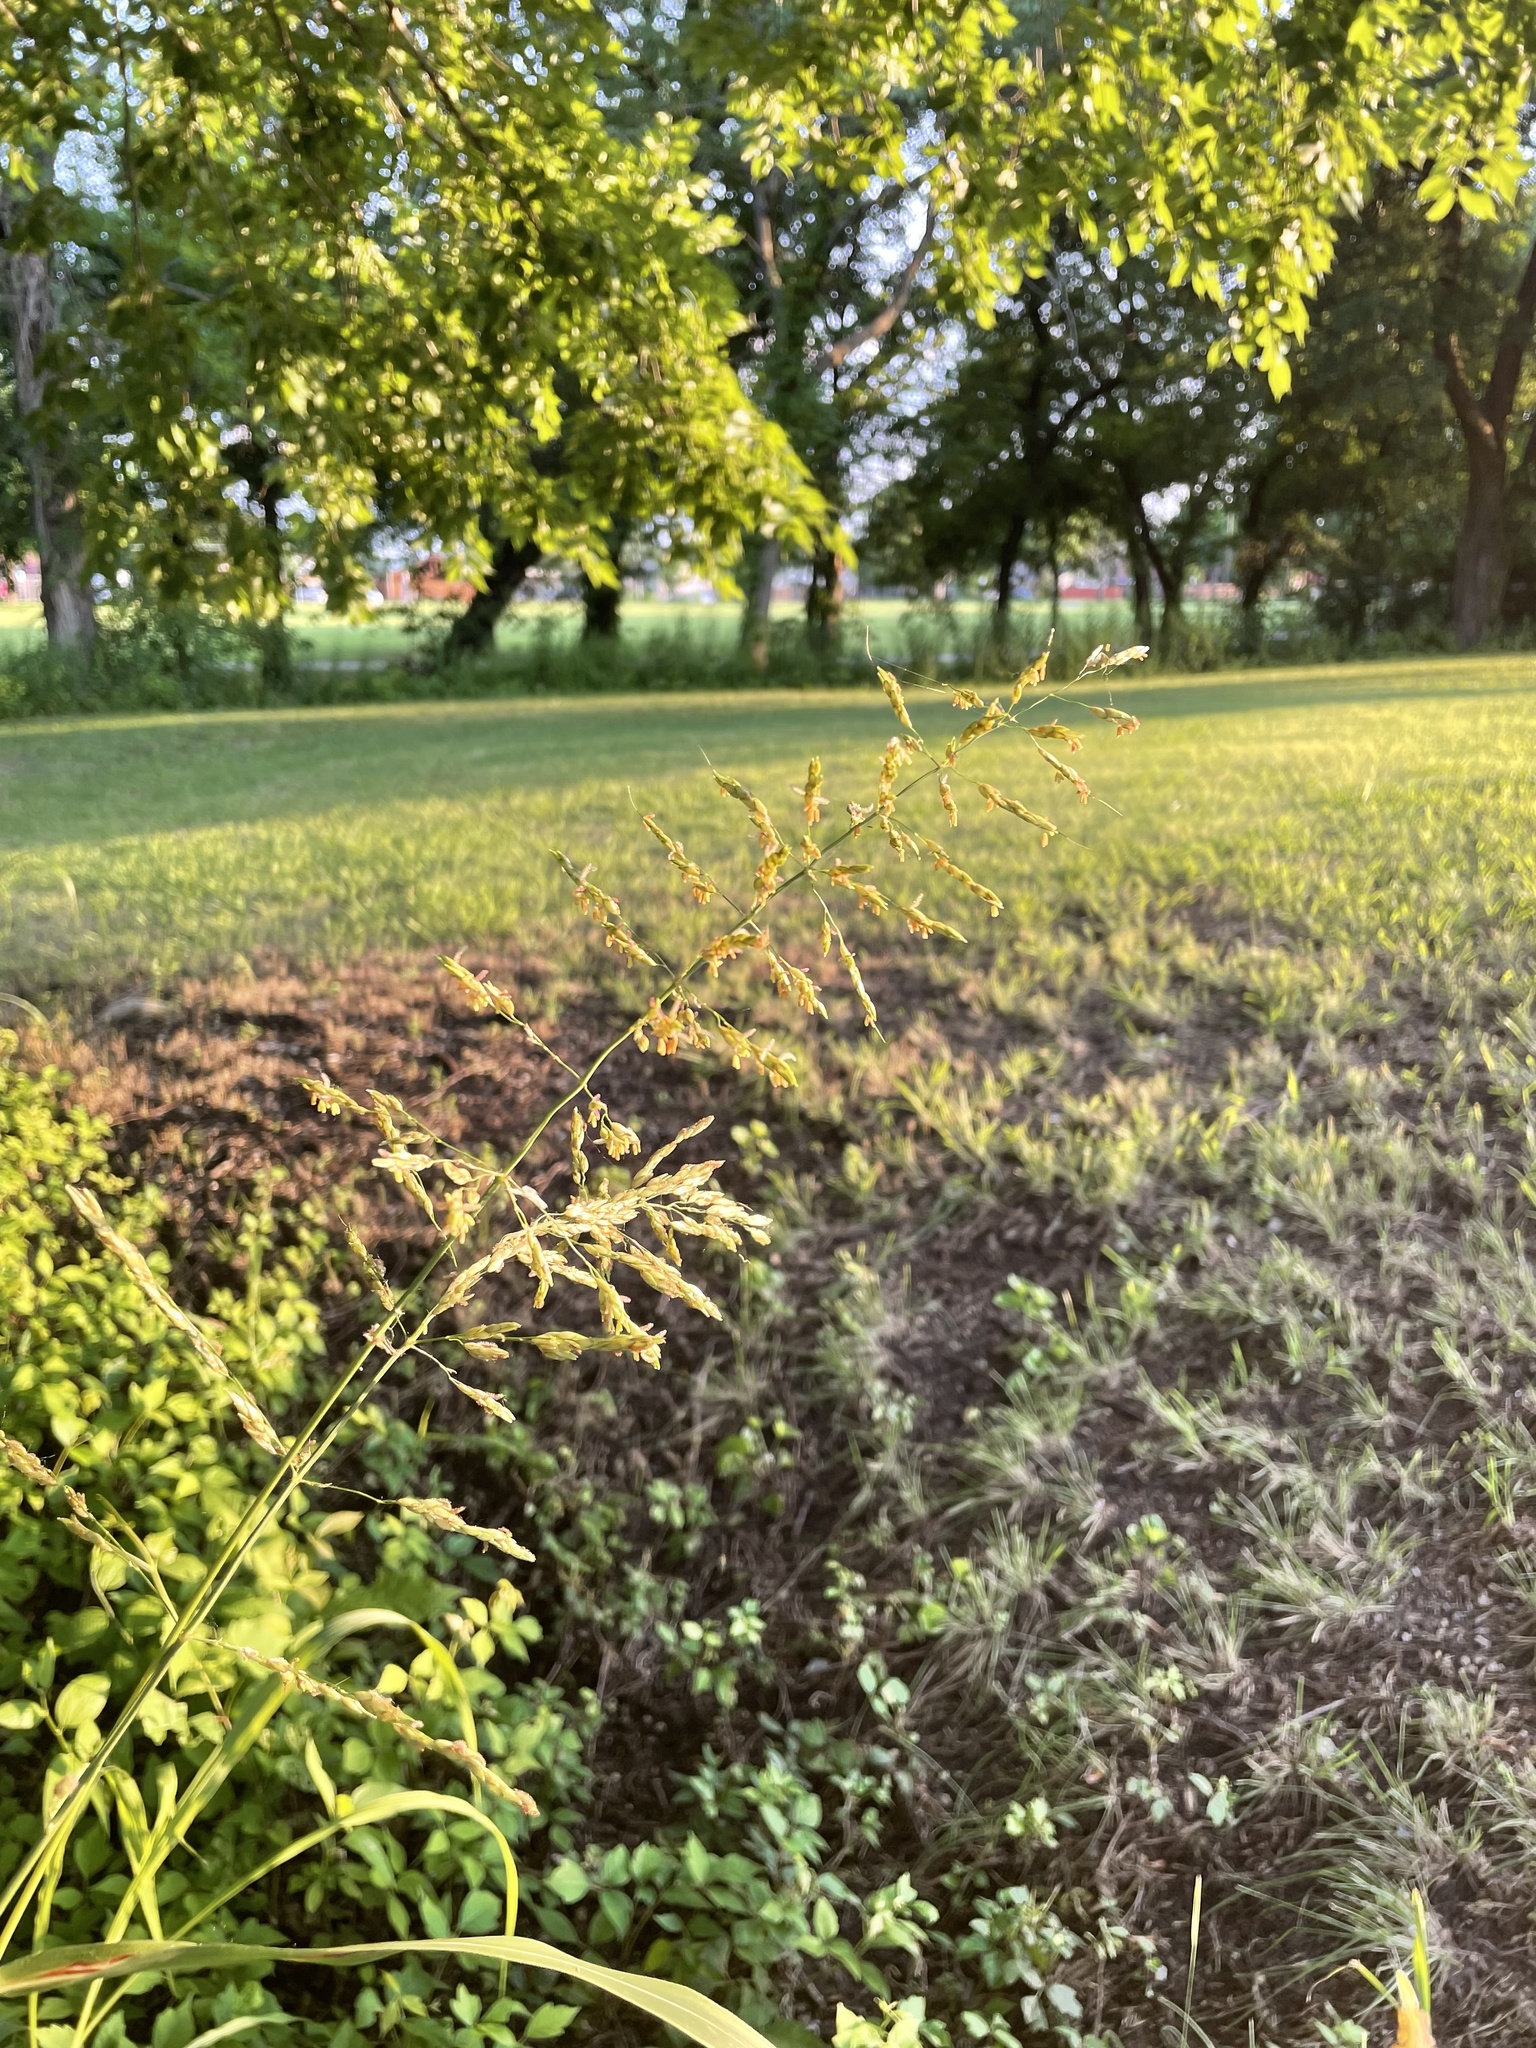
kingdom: Plantae
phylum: Tracheophyta
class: Liliopsida
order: Poales
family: Poaceae
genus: Sorghum
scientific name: Sorghum halepense
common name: Johnson-grass
